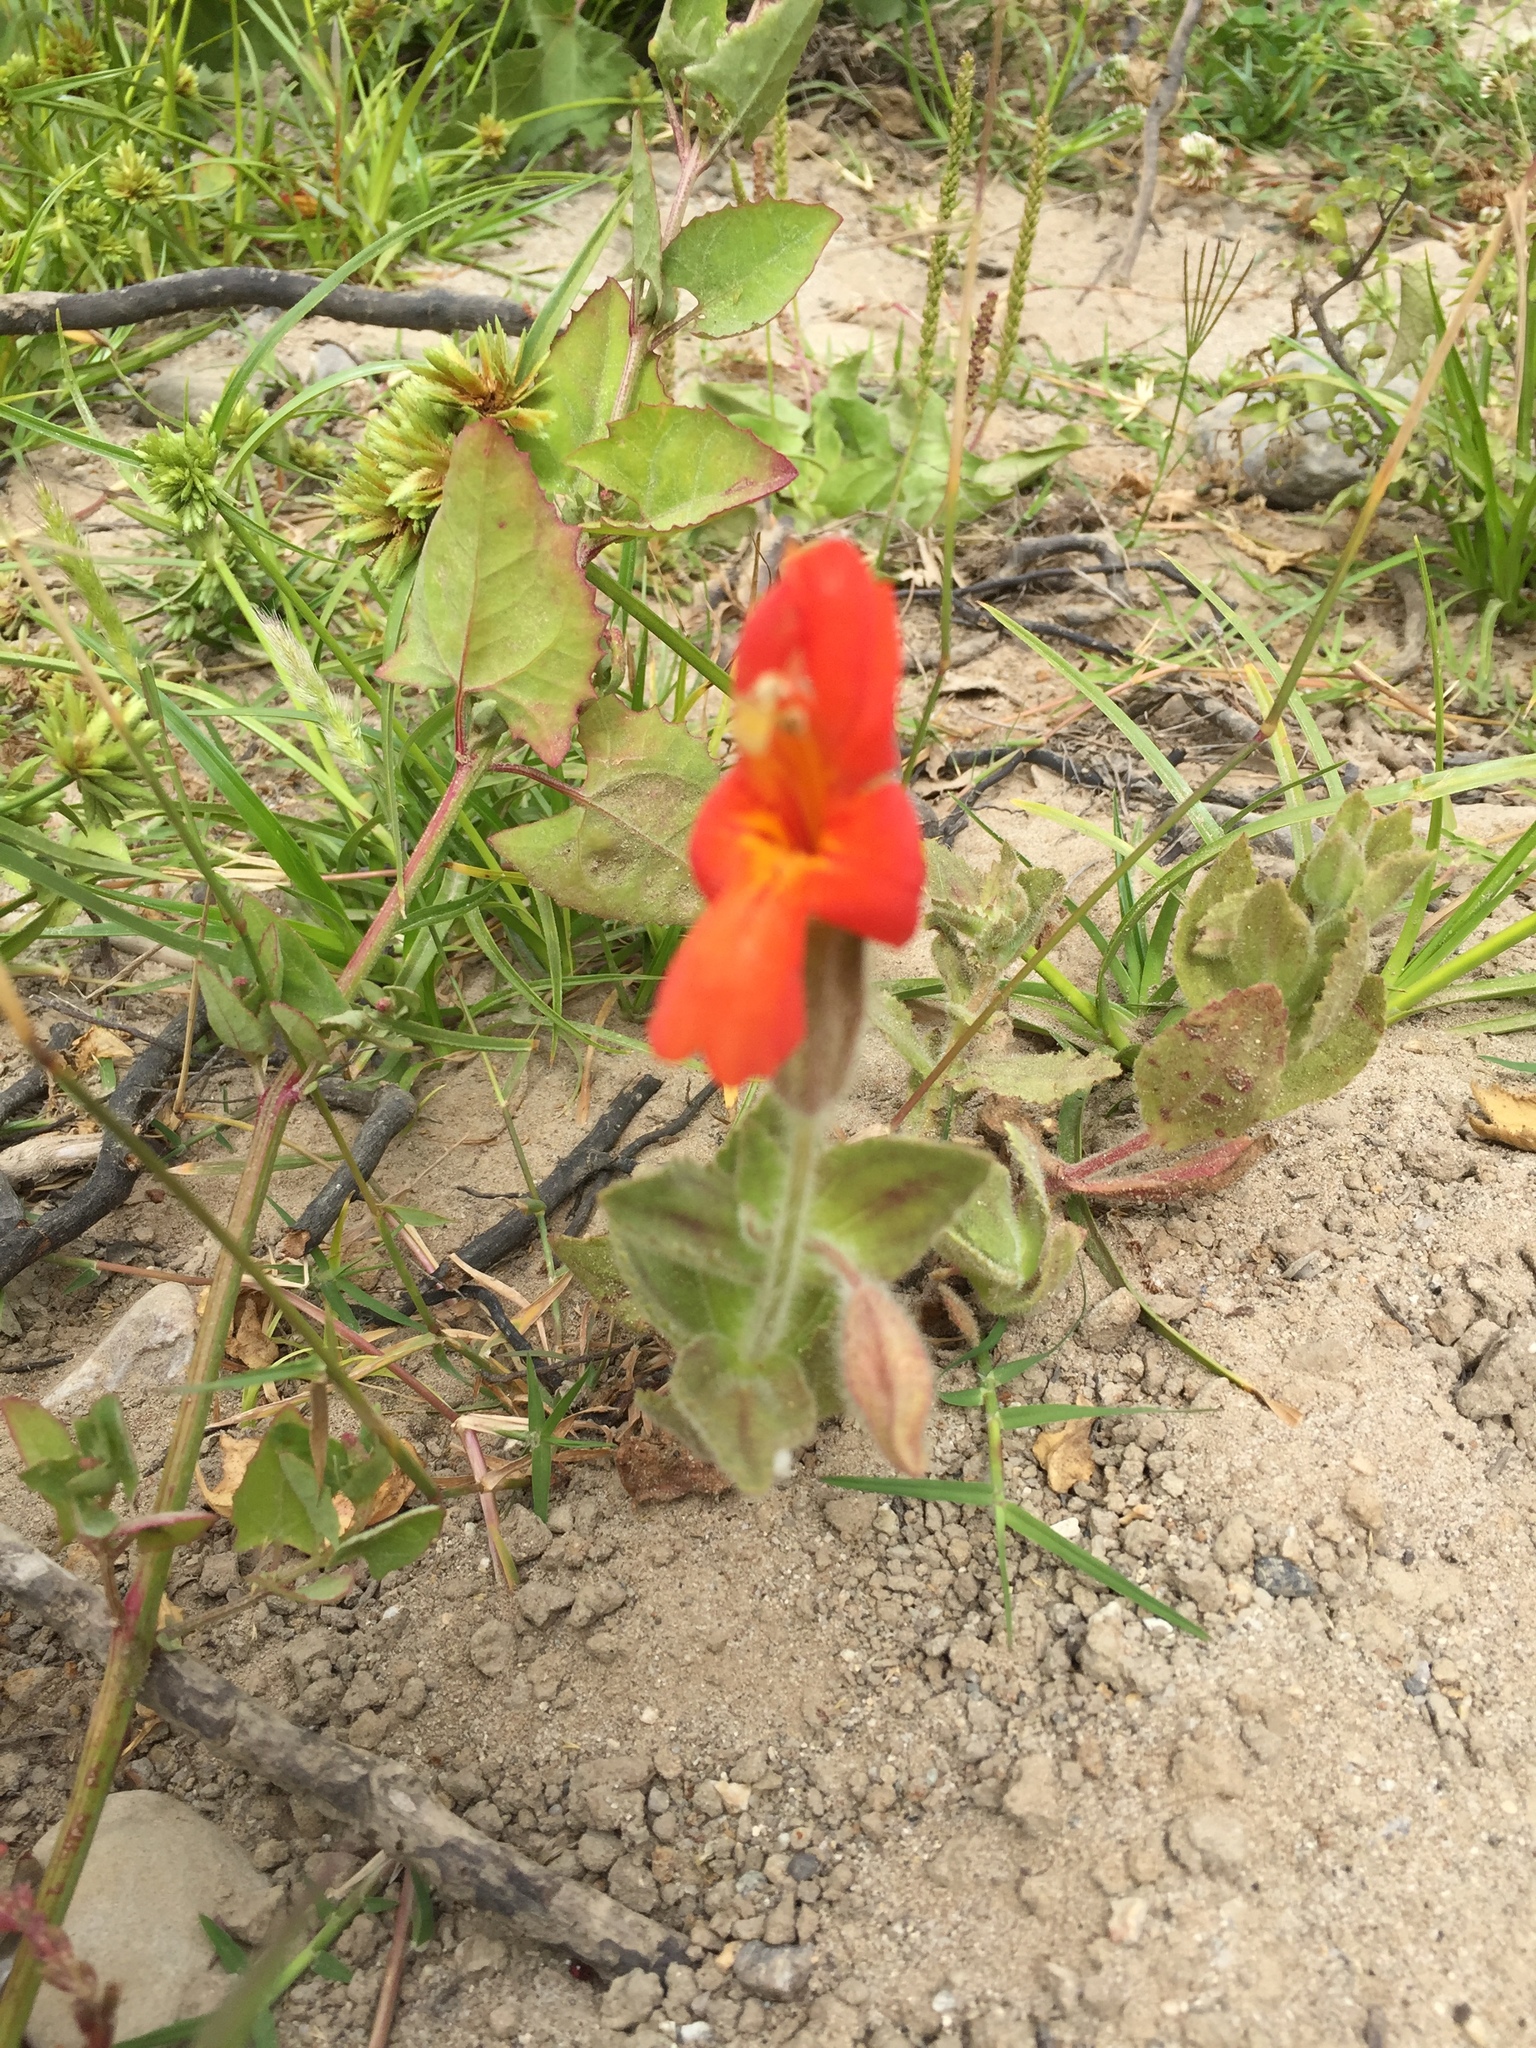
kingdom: Plantae
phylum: Tracheophyta
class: Magnoliopsida
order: Lamiales
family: Phrymaceae
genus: Erythranthe
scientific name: Erythranthe cardinalis
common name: Scarlet monkey-flower
